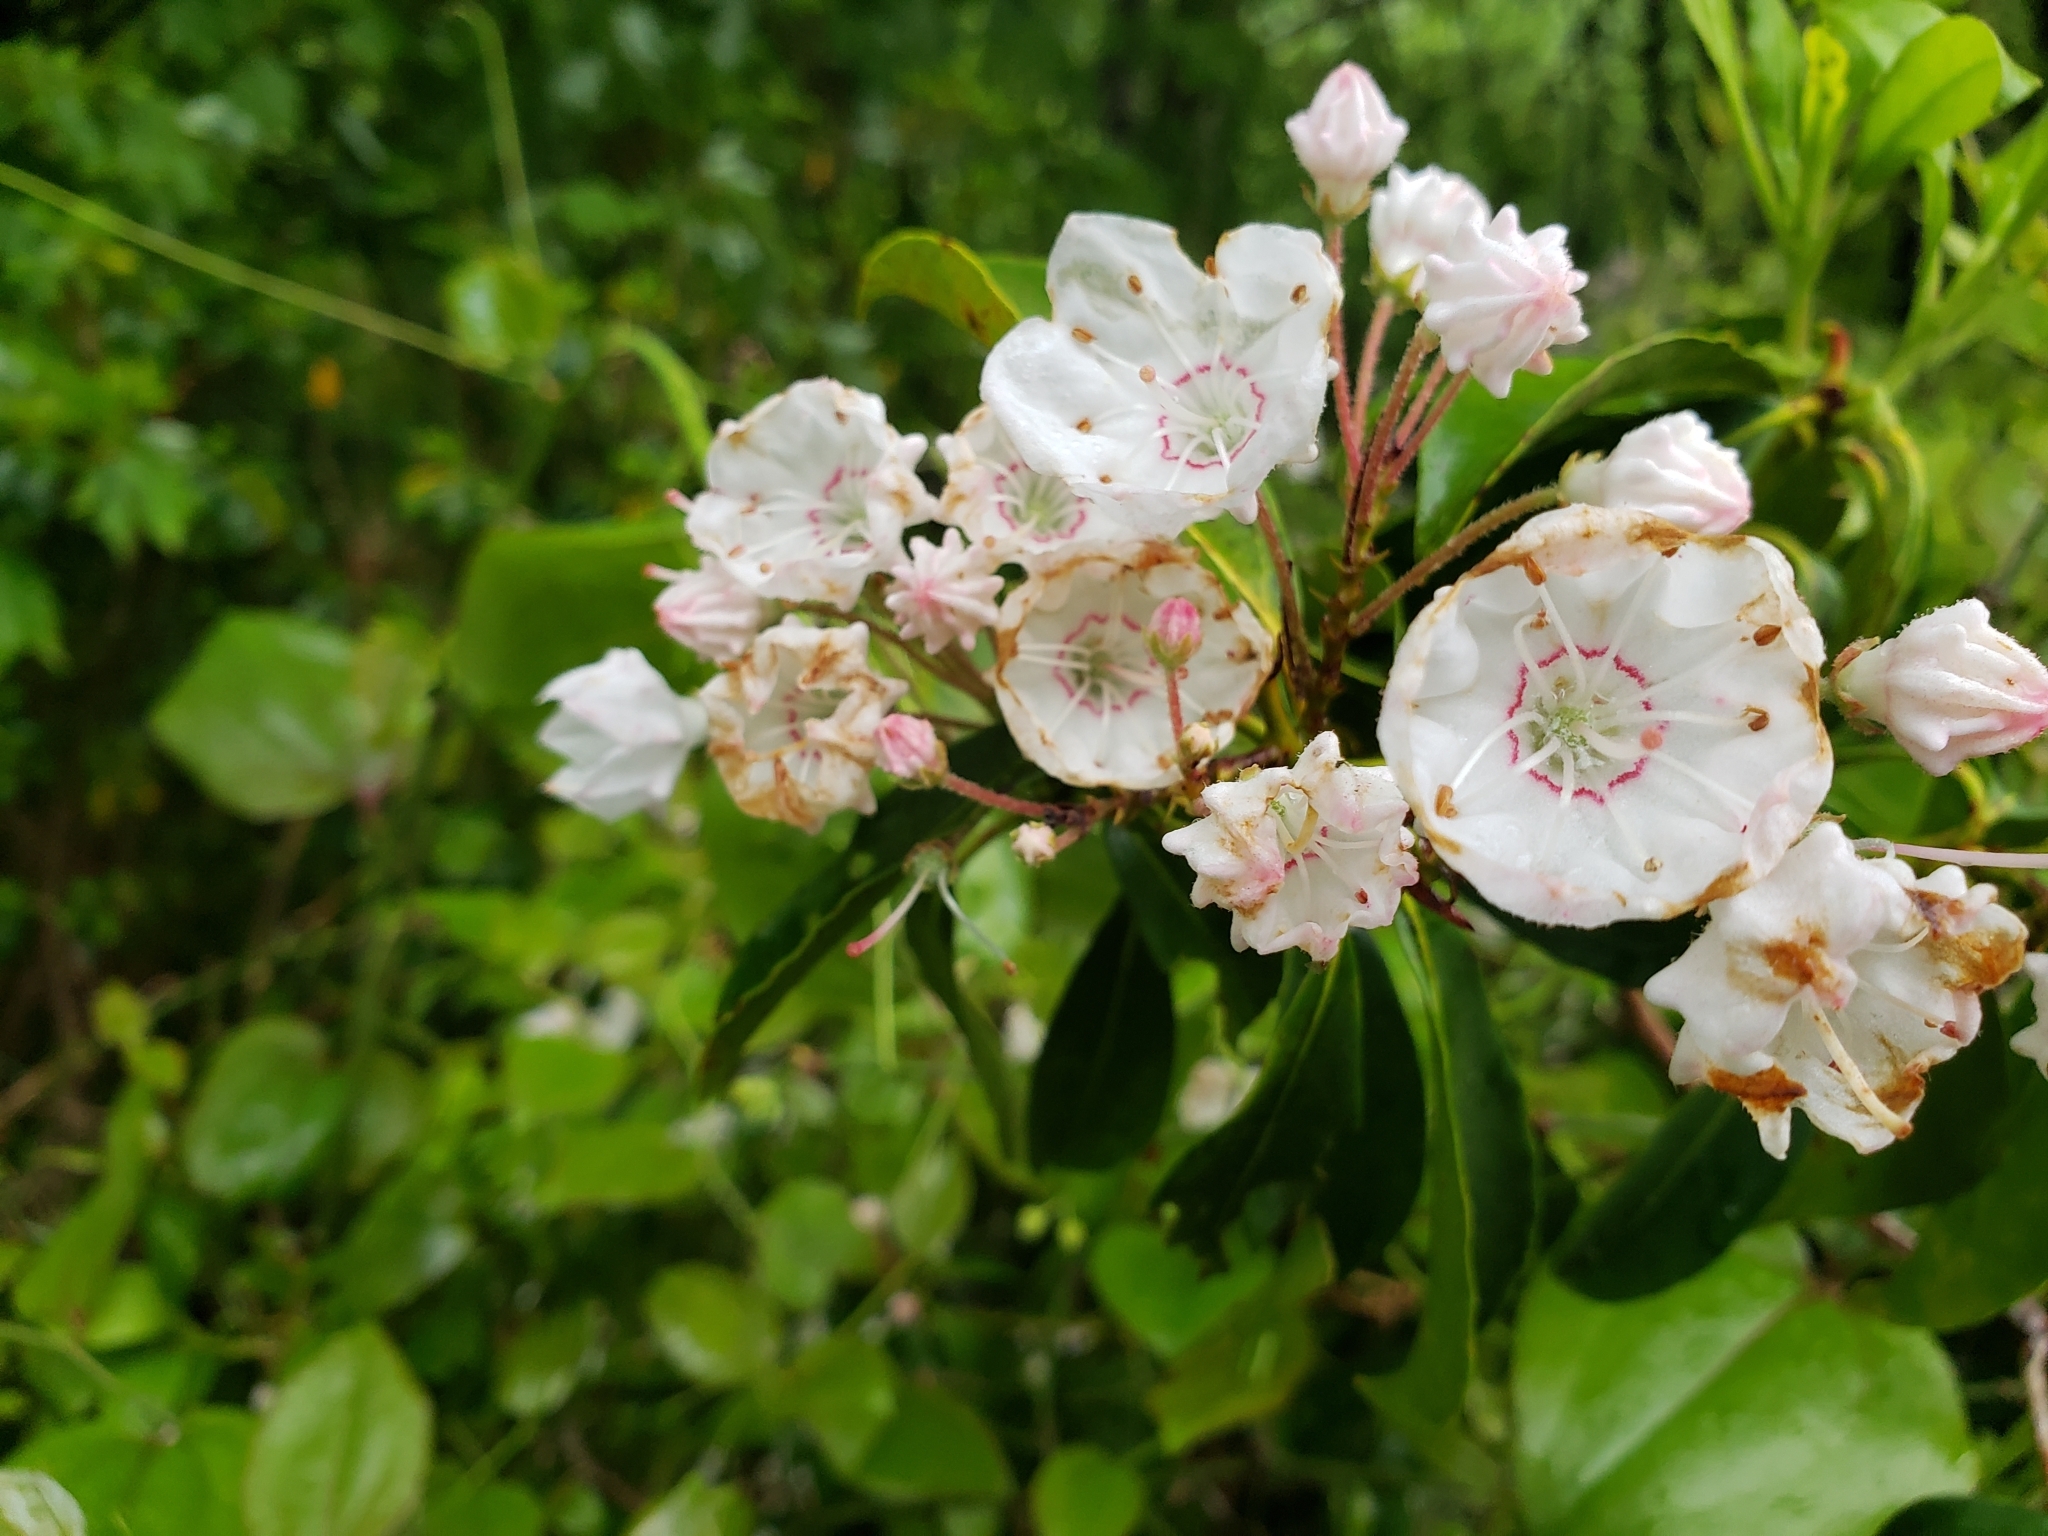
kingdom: Plantae
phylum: Tracheophyta
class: Magnoliopsida
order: Ericales
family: Ericaceae
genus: Kalmia
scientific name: Kalmia latifolia
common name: Mountain-laurel
